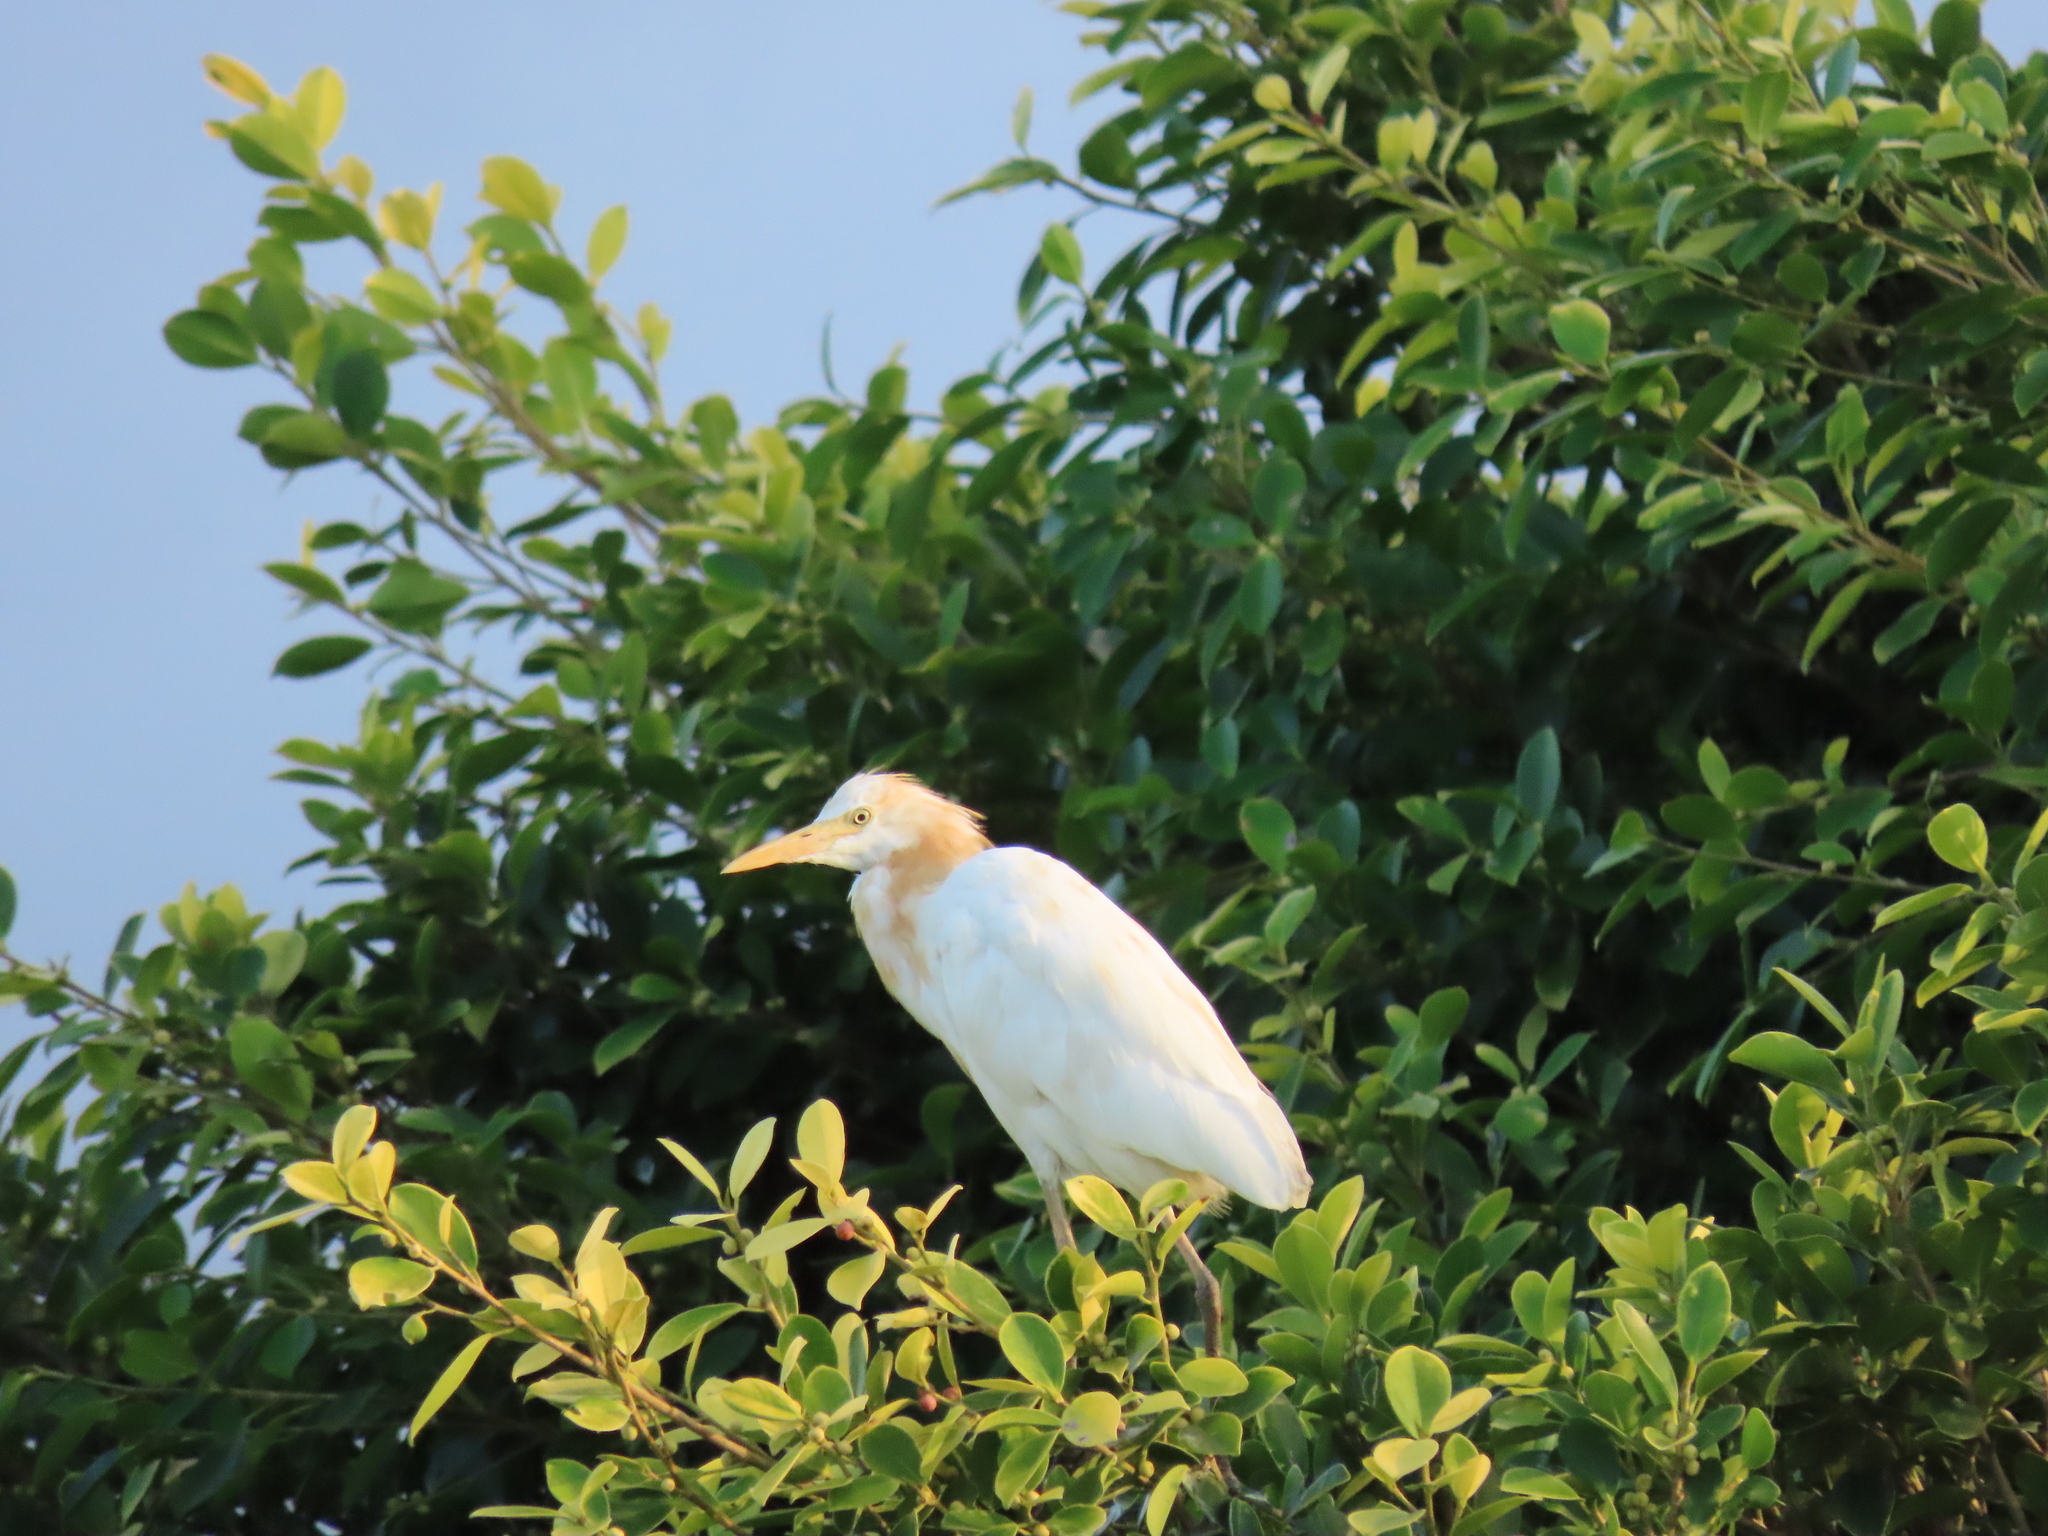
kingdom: Animalia
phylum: Chordata
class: Aves
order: Pelecaniformes
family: Ardeidae
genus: Bubulcus
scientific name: Bubulcus coromandus
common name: Eastern cattle egret
